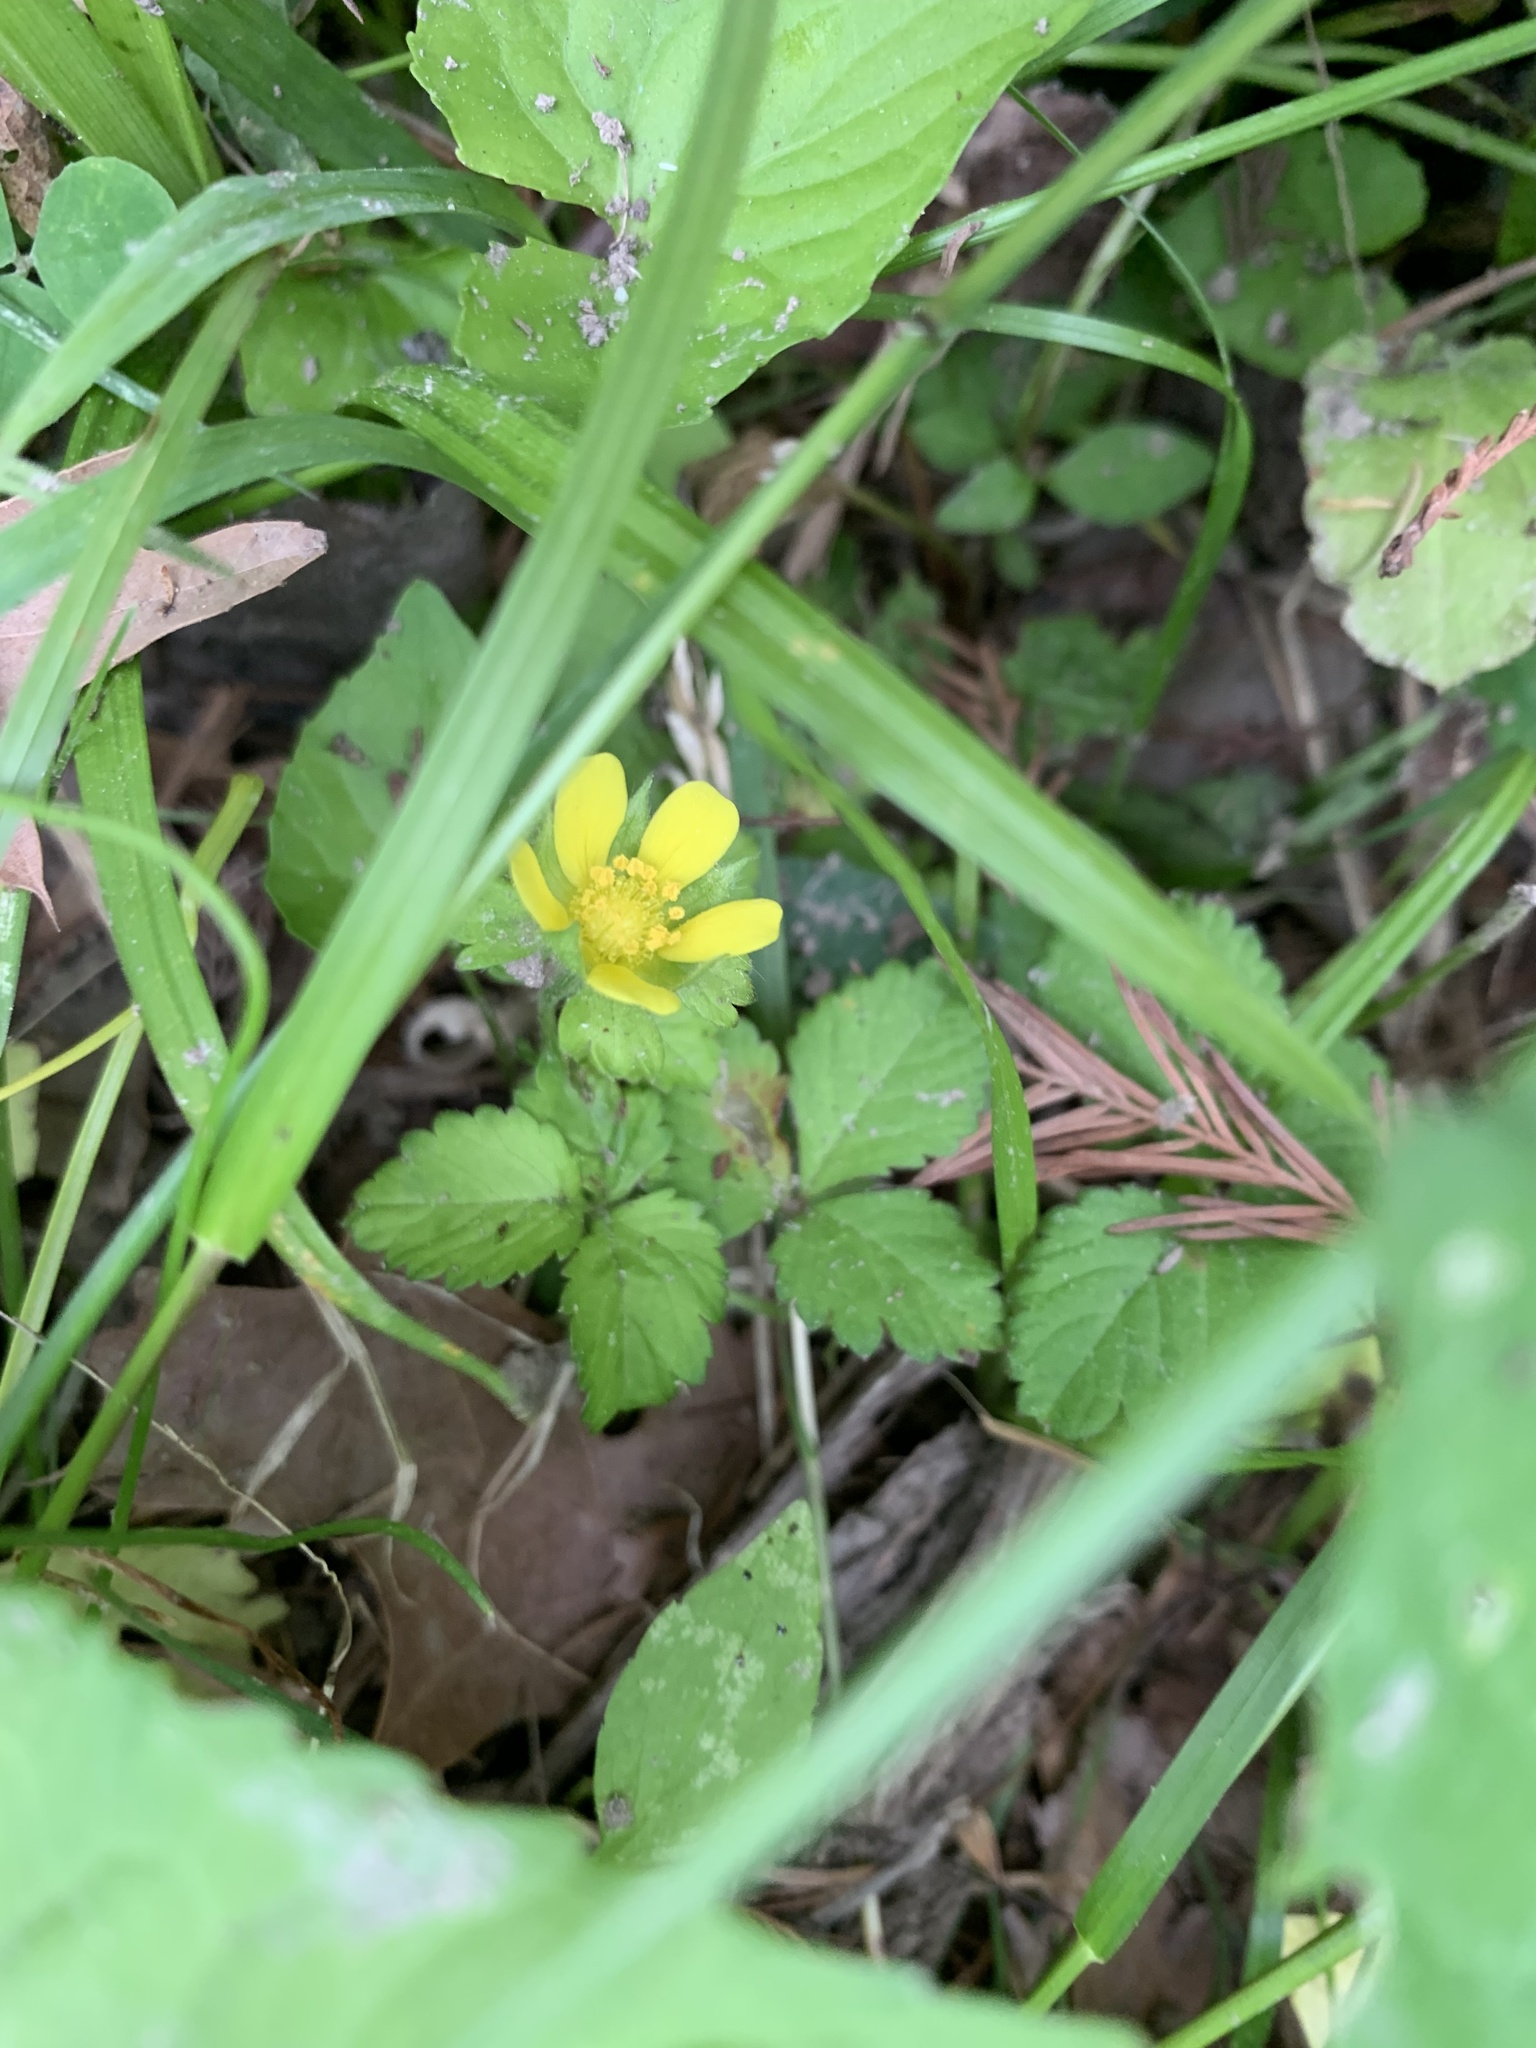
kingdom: Plantae
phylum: Tracheophyta
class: Magnoliopsida
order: Rosales
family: Rosaceae
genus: Potentilla
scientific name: Potentilla indica
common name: Yellow-flowered strawberry
